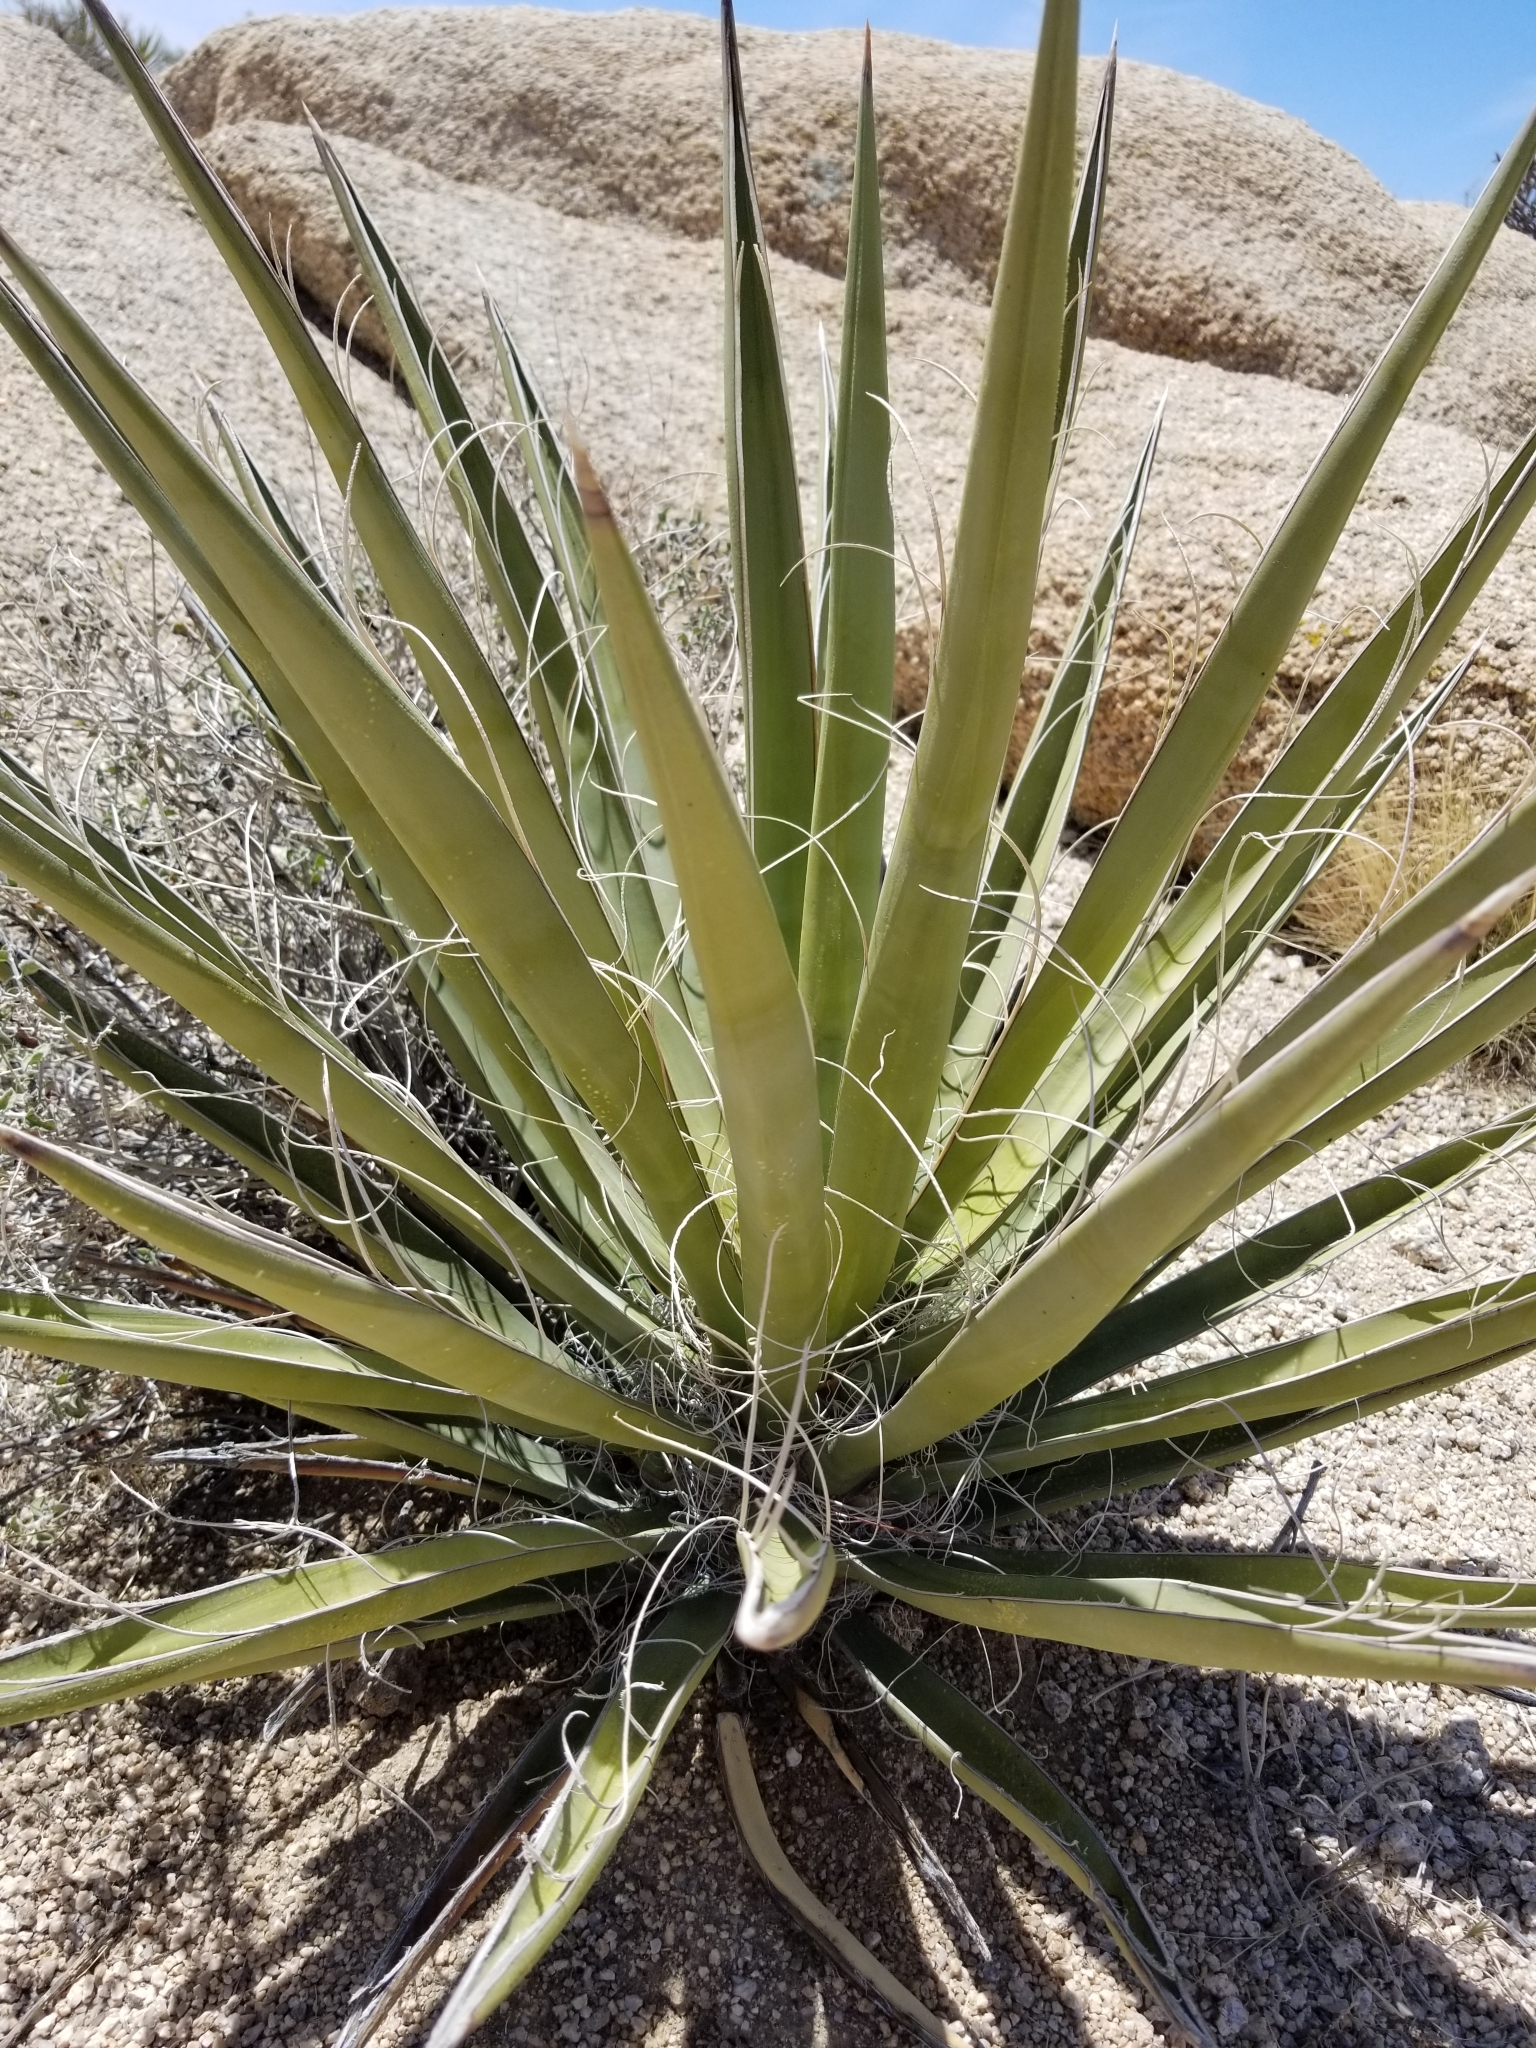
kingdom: Plantae
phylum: Tracheophyta
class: Liliopsida
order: Asparagales
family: Asparagaceae
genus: Yucca
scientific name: Yucca schidigera
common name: Mojave yucca
